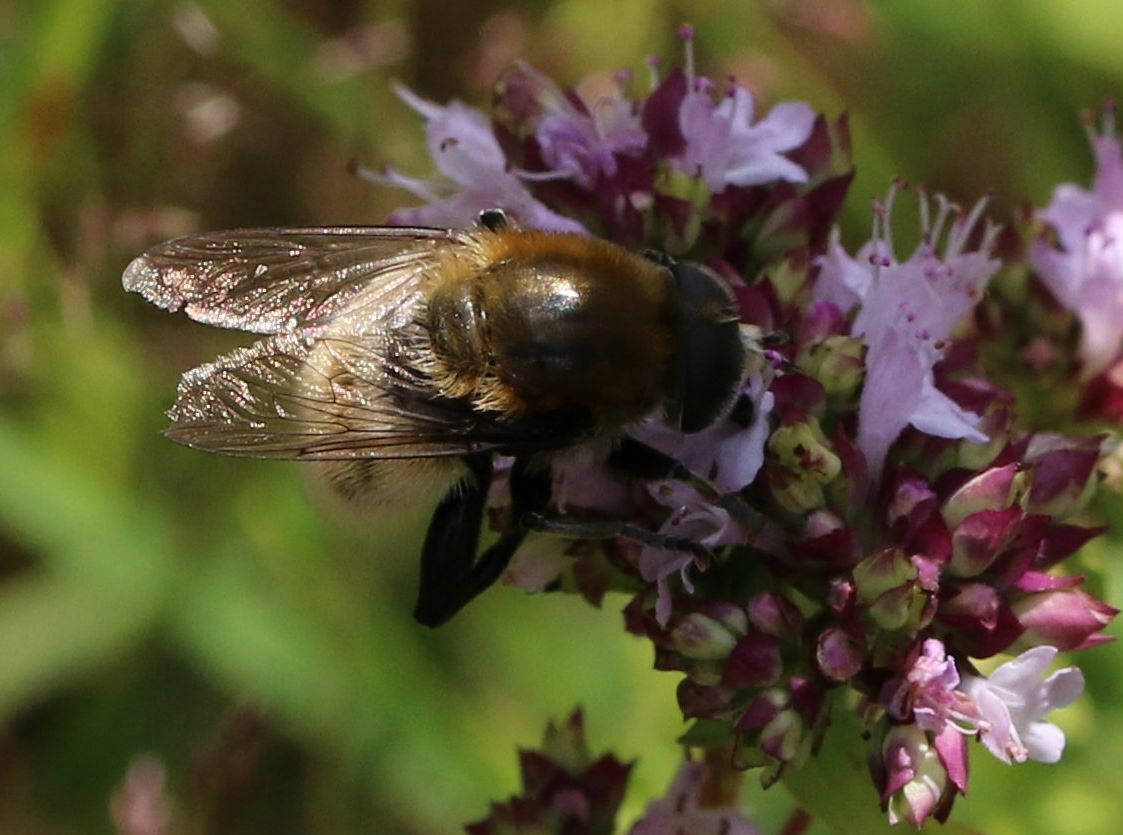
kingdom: Animalia
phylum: Arthropoda
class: Insecta
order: Diptera
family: Syrphidae
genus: Merodon
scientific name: Merodon equestris
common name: Greater bulb-fly
